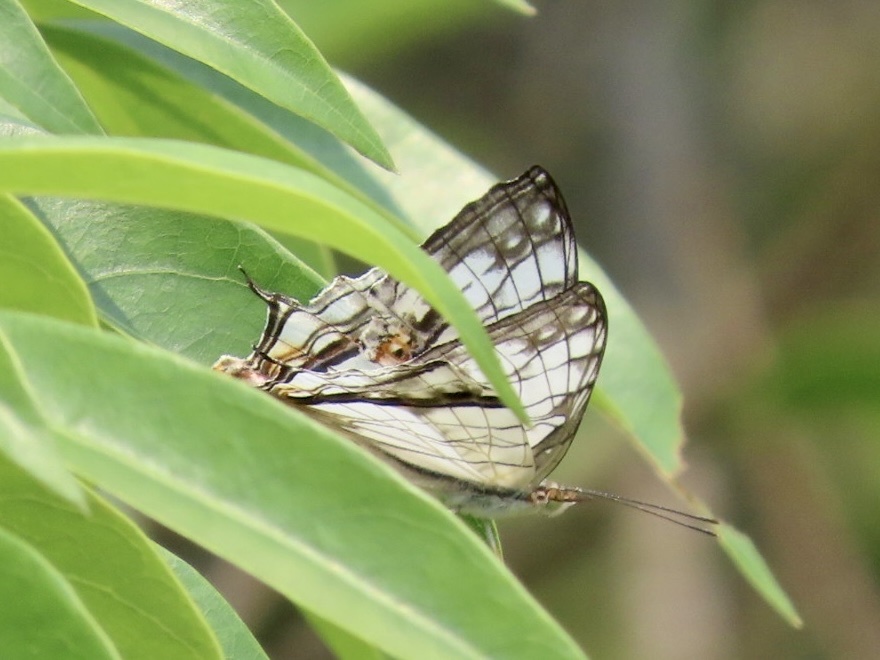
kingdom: Animalia
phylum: Arthropoda
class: Insecta
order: Lepidoptera
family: Nymphalidae
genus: Cyrestis
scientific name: Cyrestis thyodamas
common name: Common mapwing
